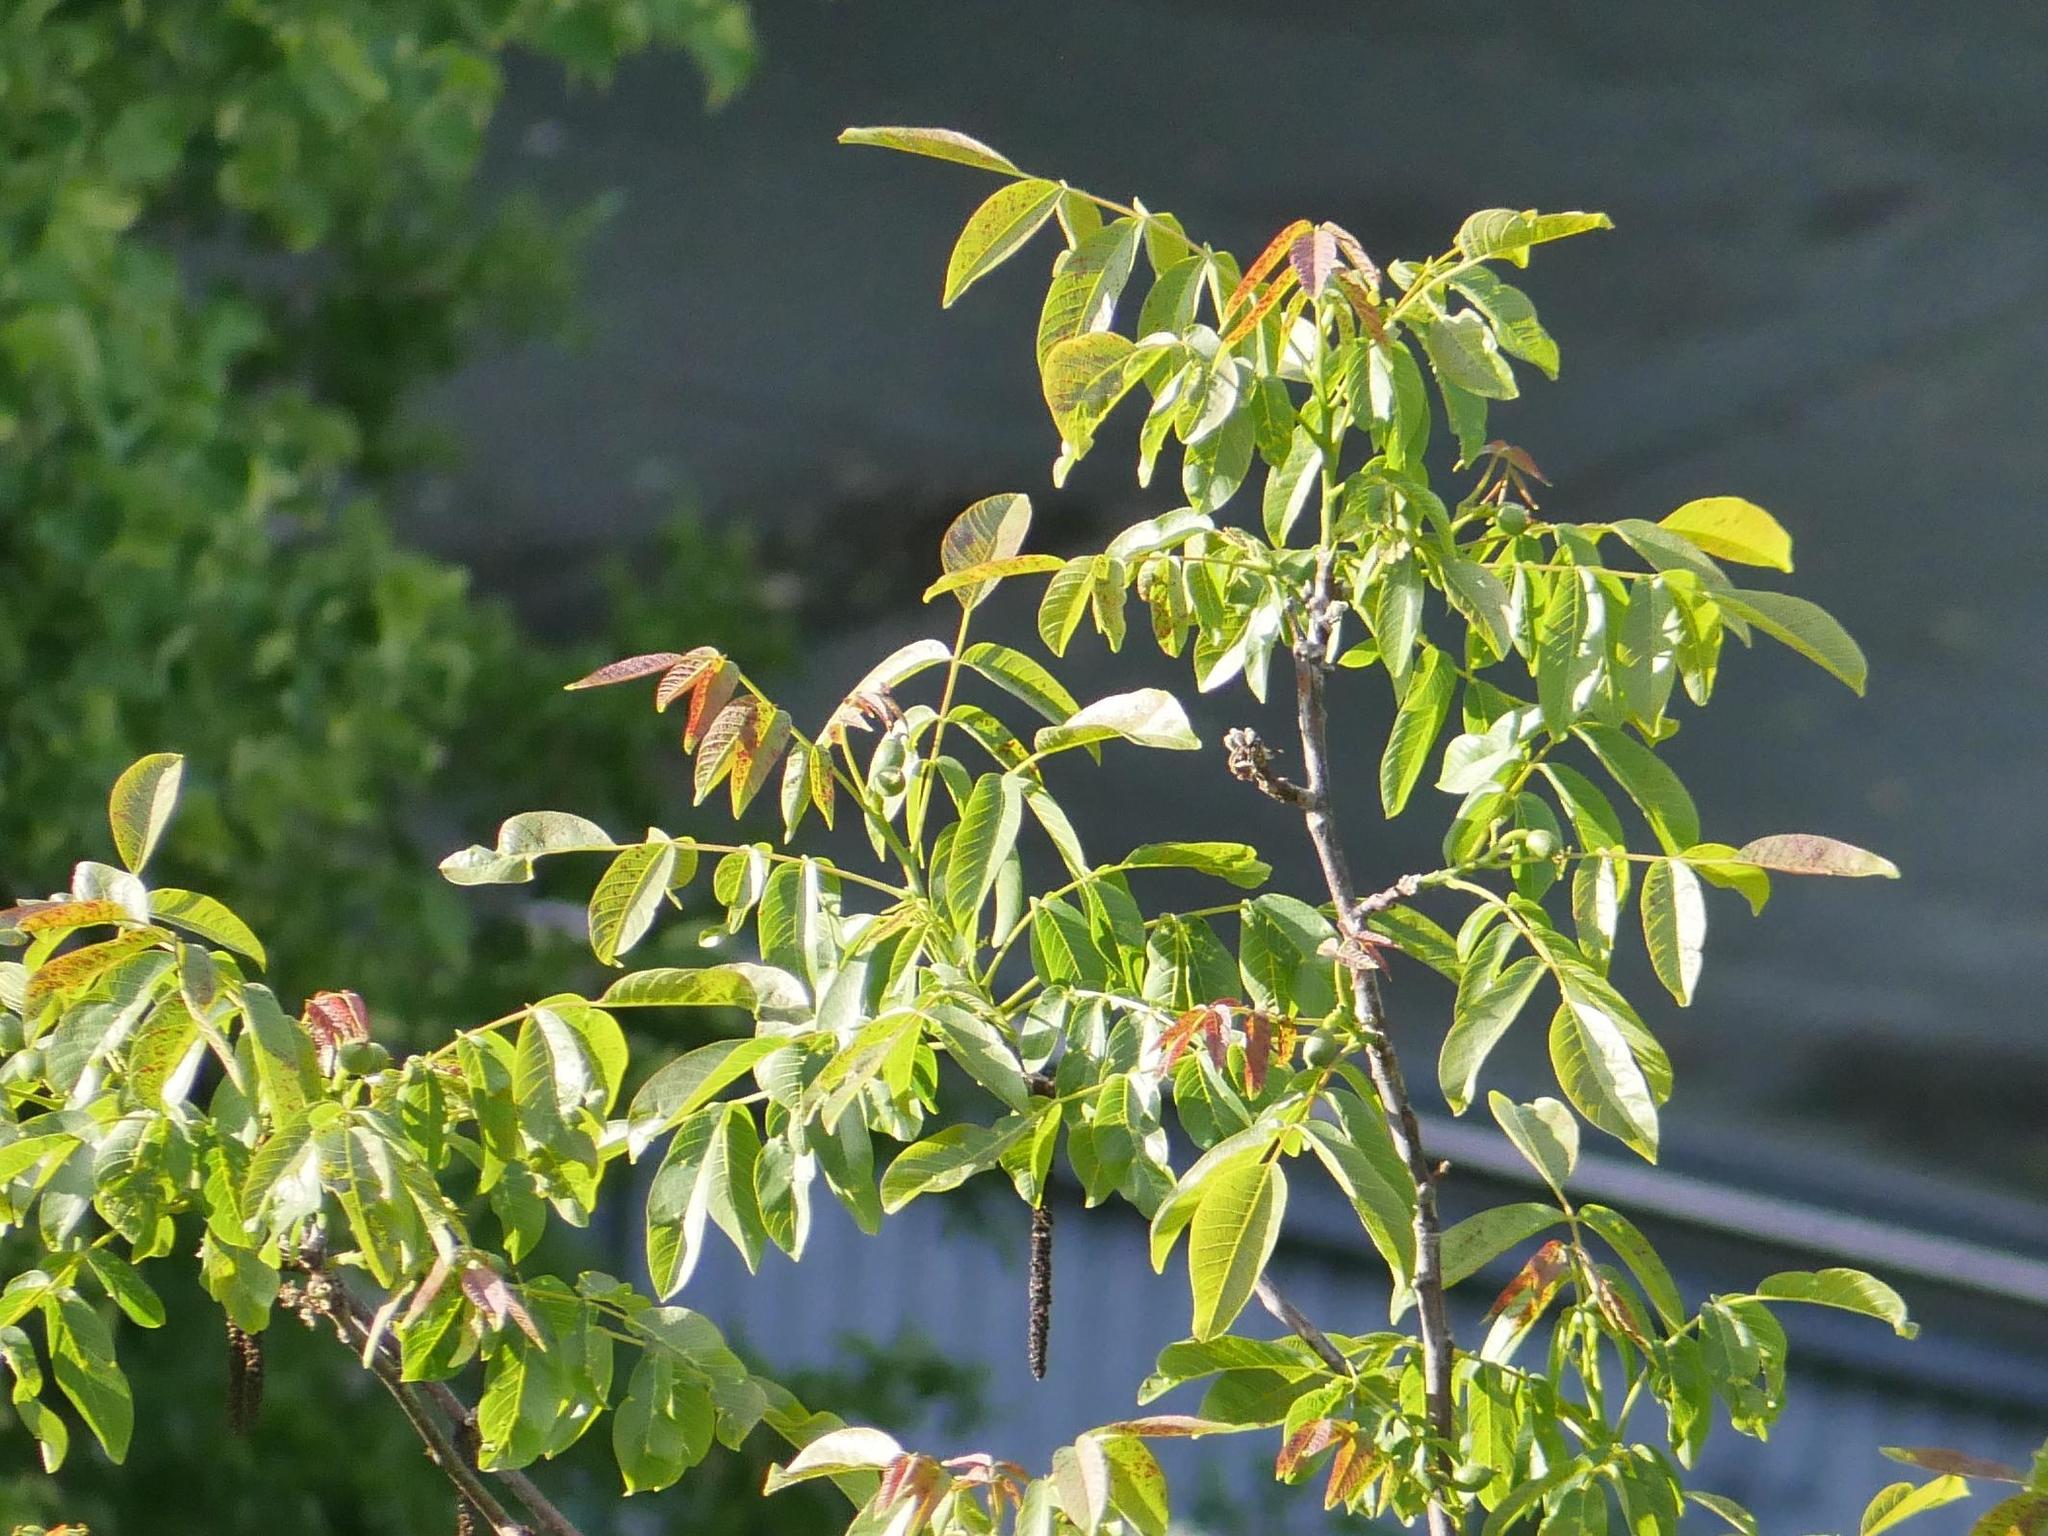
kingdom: Plantae
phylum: Tracheophyta
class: Magnoliopsida
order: Fagales
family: Juglandaceae
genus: Juglans
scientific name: Juglans regia
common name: Walnut
